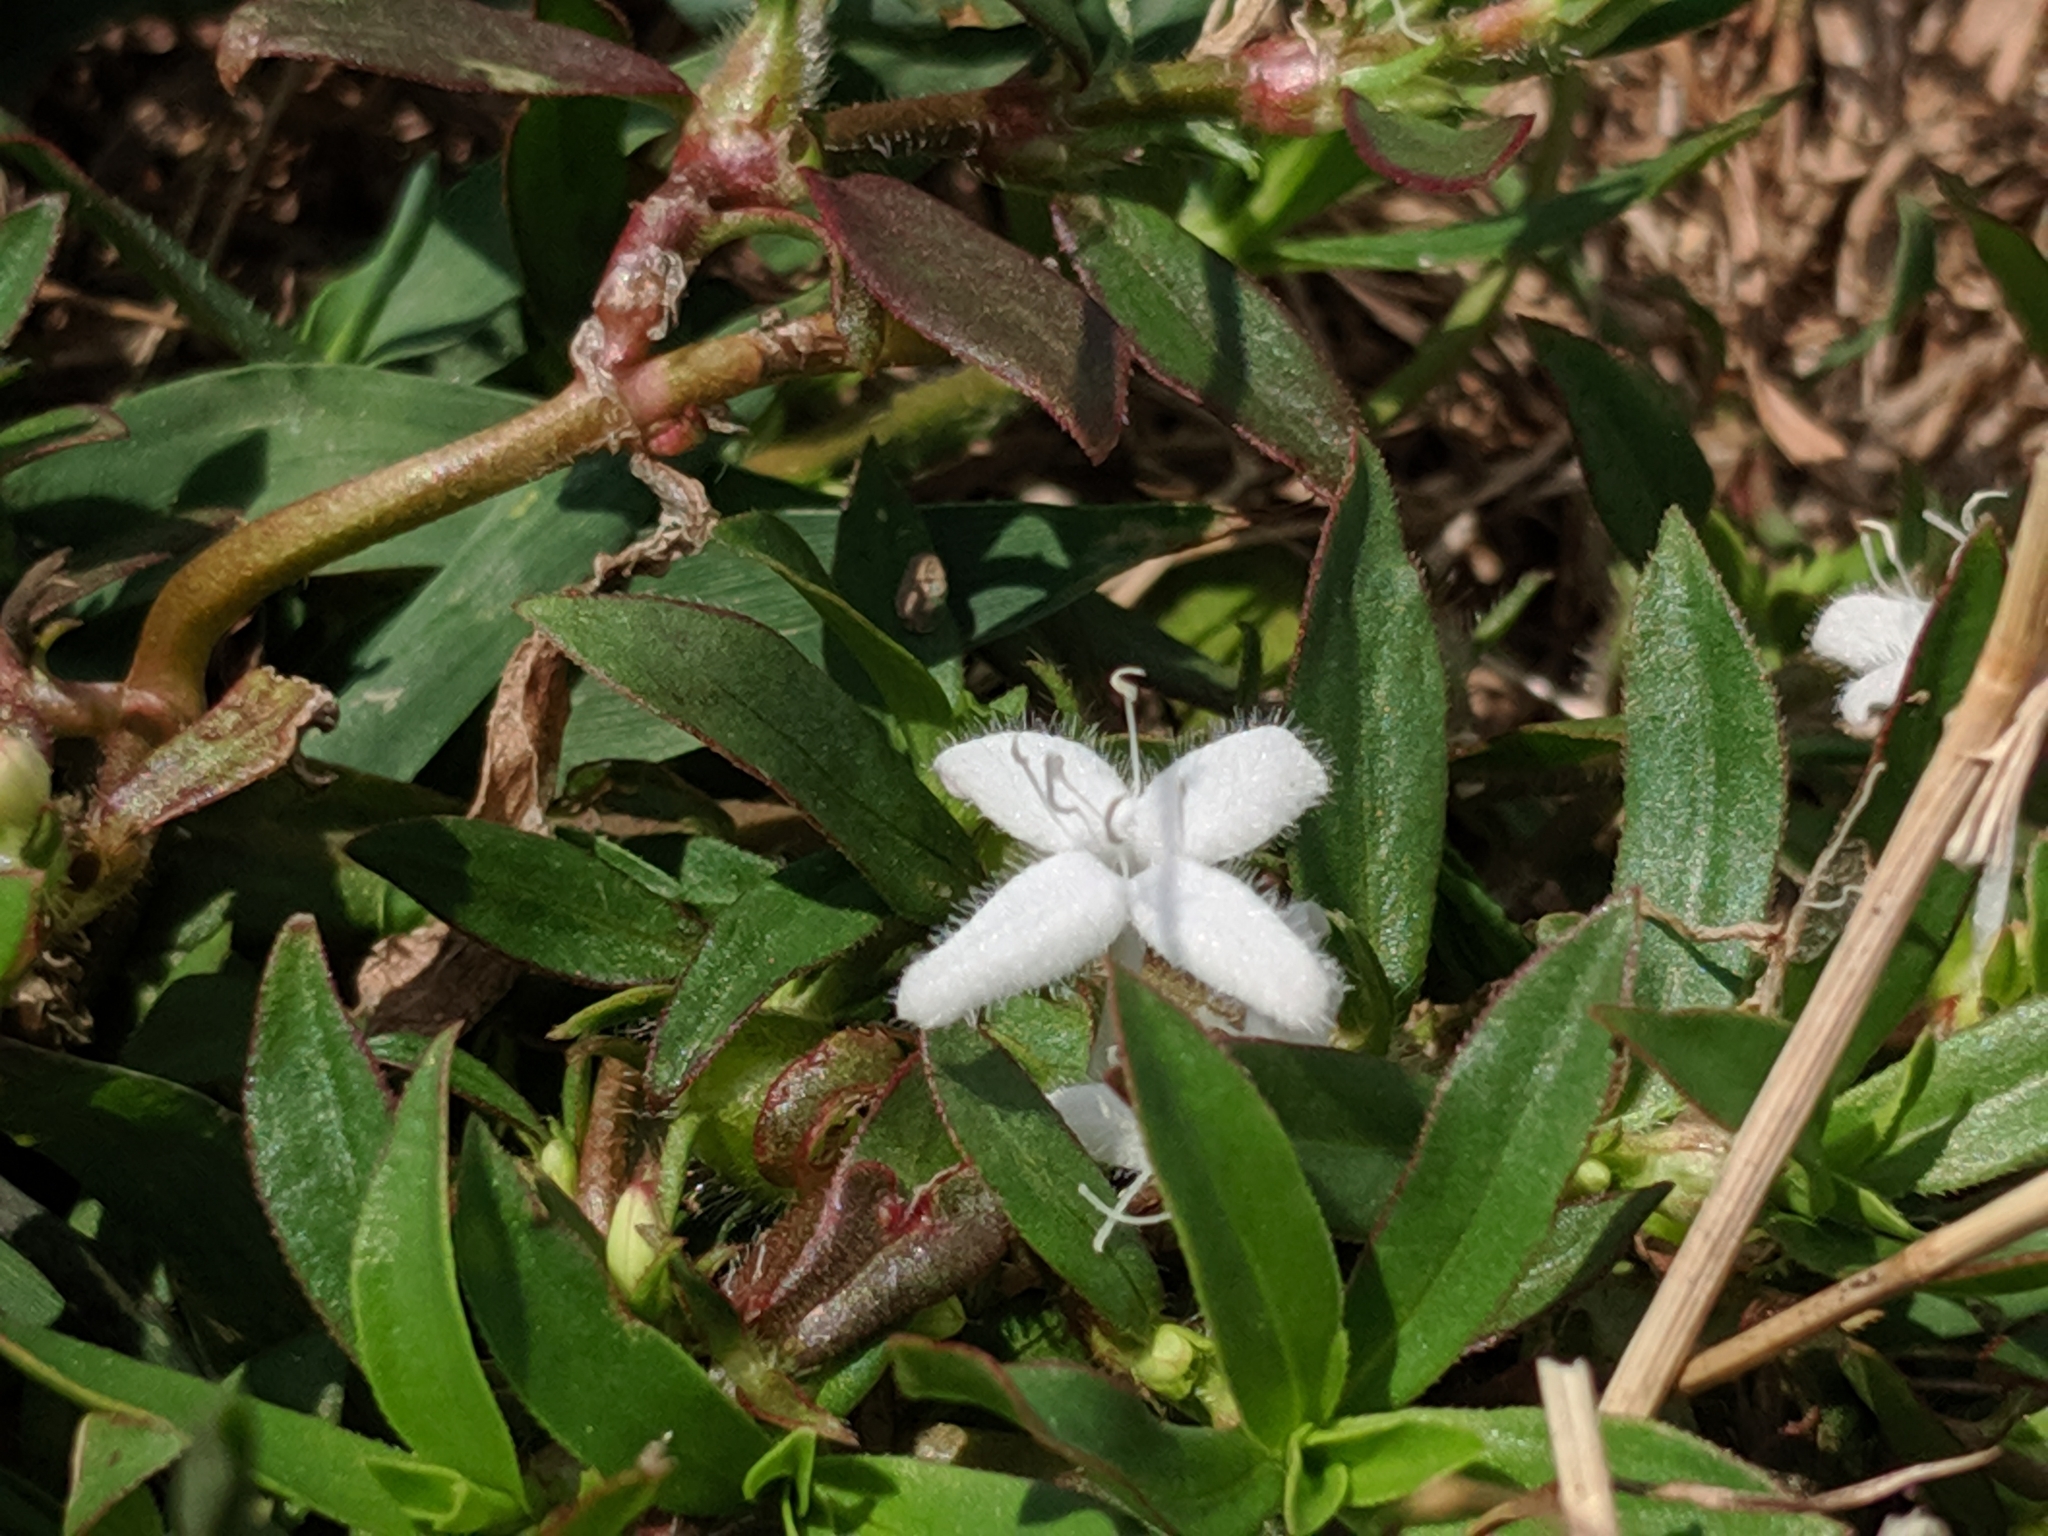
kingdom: Plantae
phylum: Tracheophyta
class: Magnoliopsida
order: Gentianales
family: Rubiaceae
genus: Diodia
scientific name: Diodia virginiana
